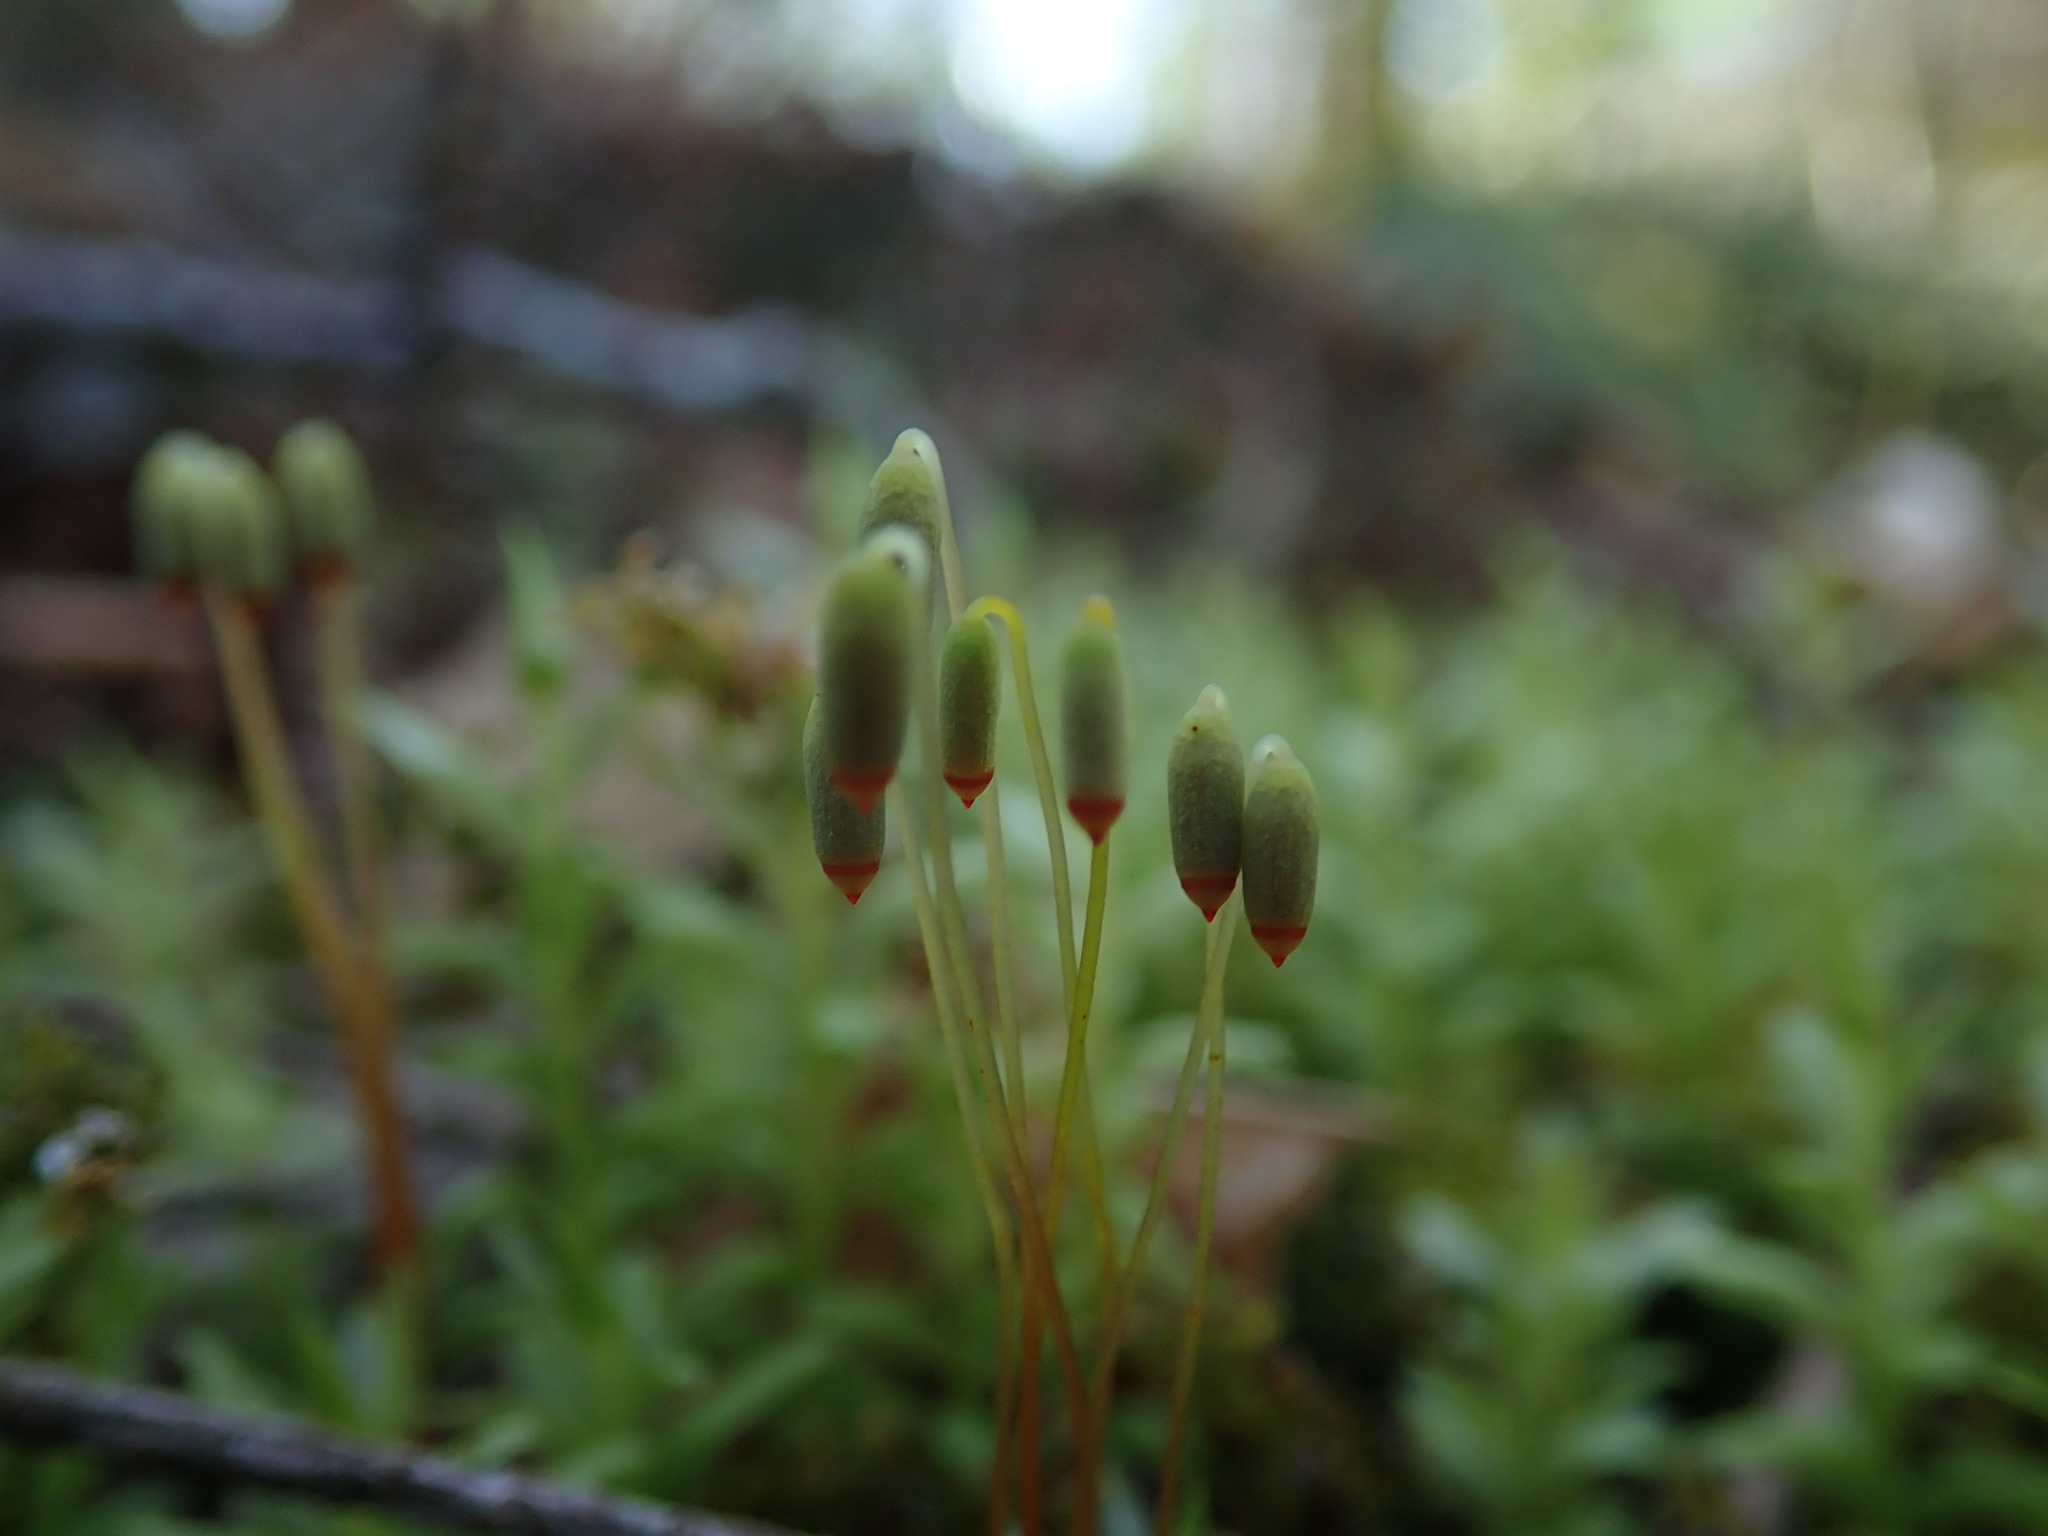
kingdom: Plantae
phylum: Bryophyta
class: Bryopsida
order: Bryales
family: Mniaceae
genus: Plagiomnium
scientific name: Plagiomnium insigne
